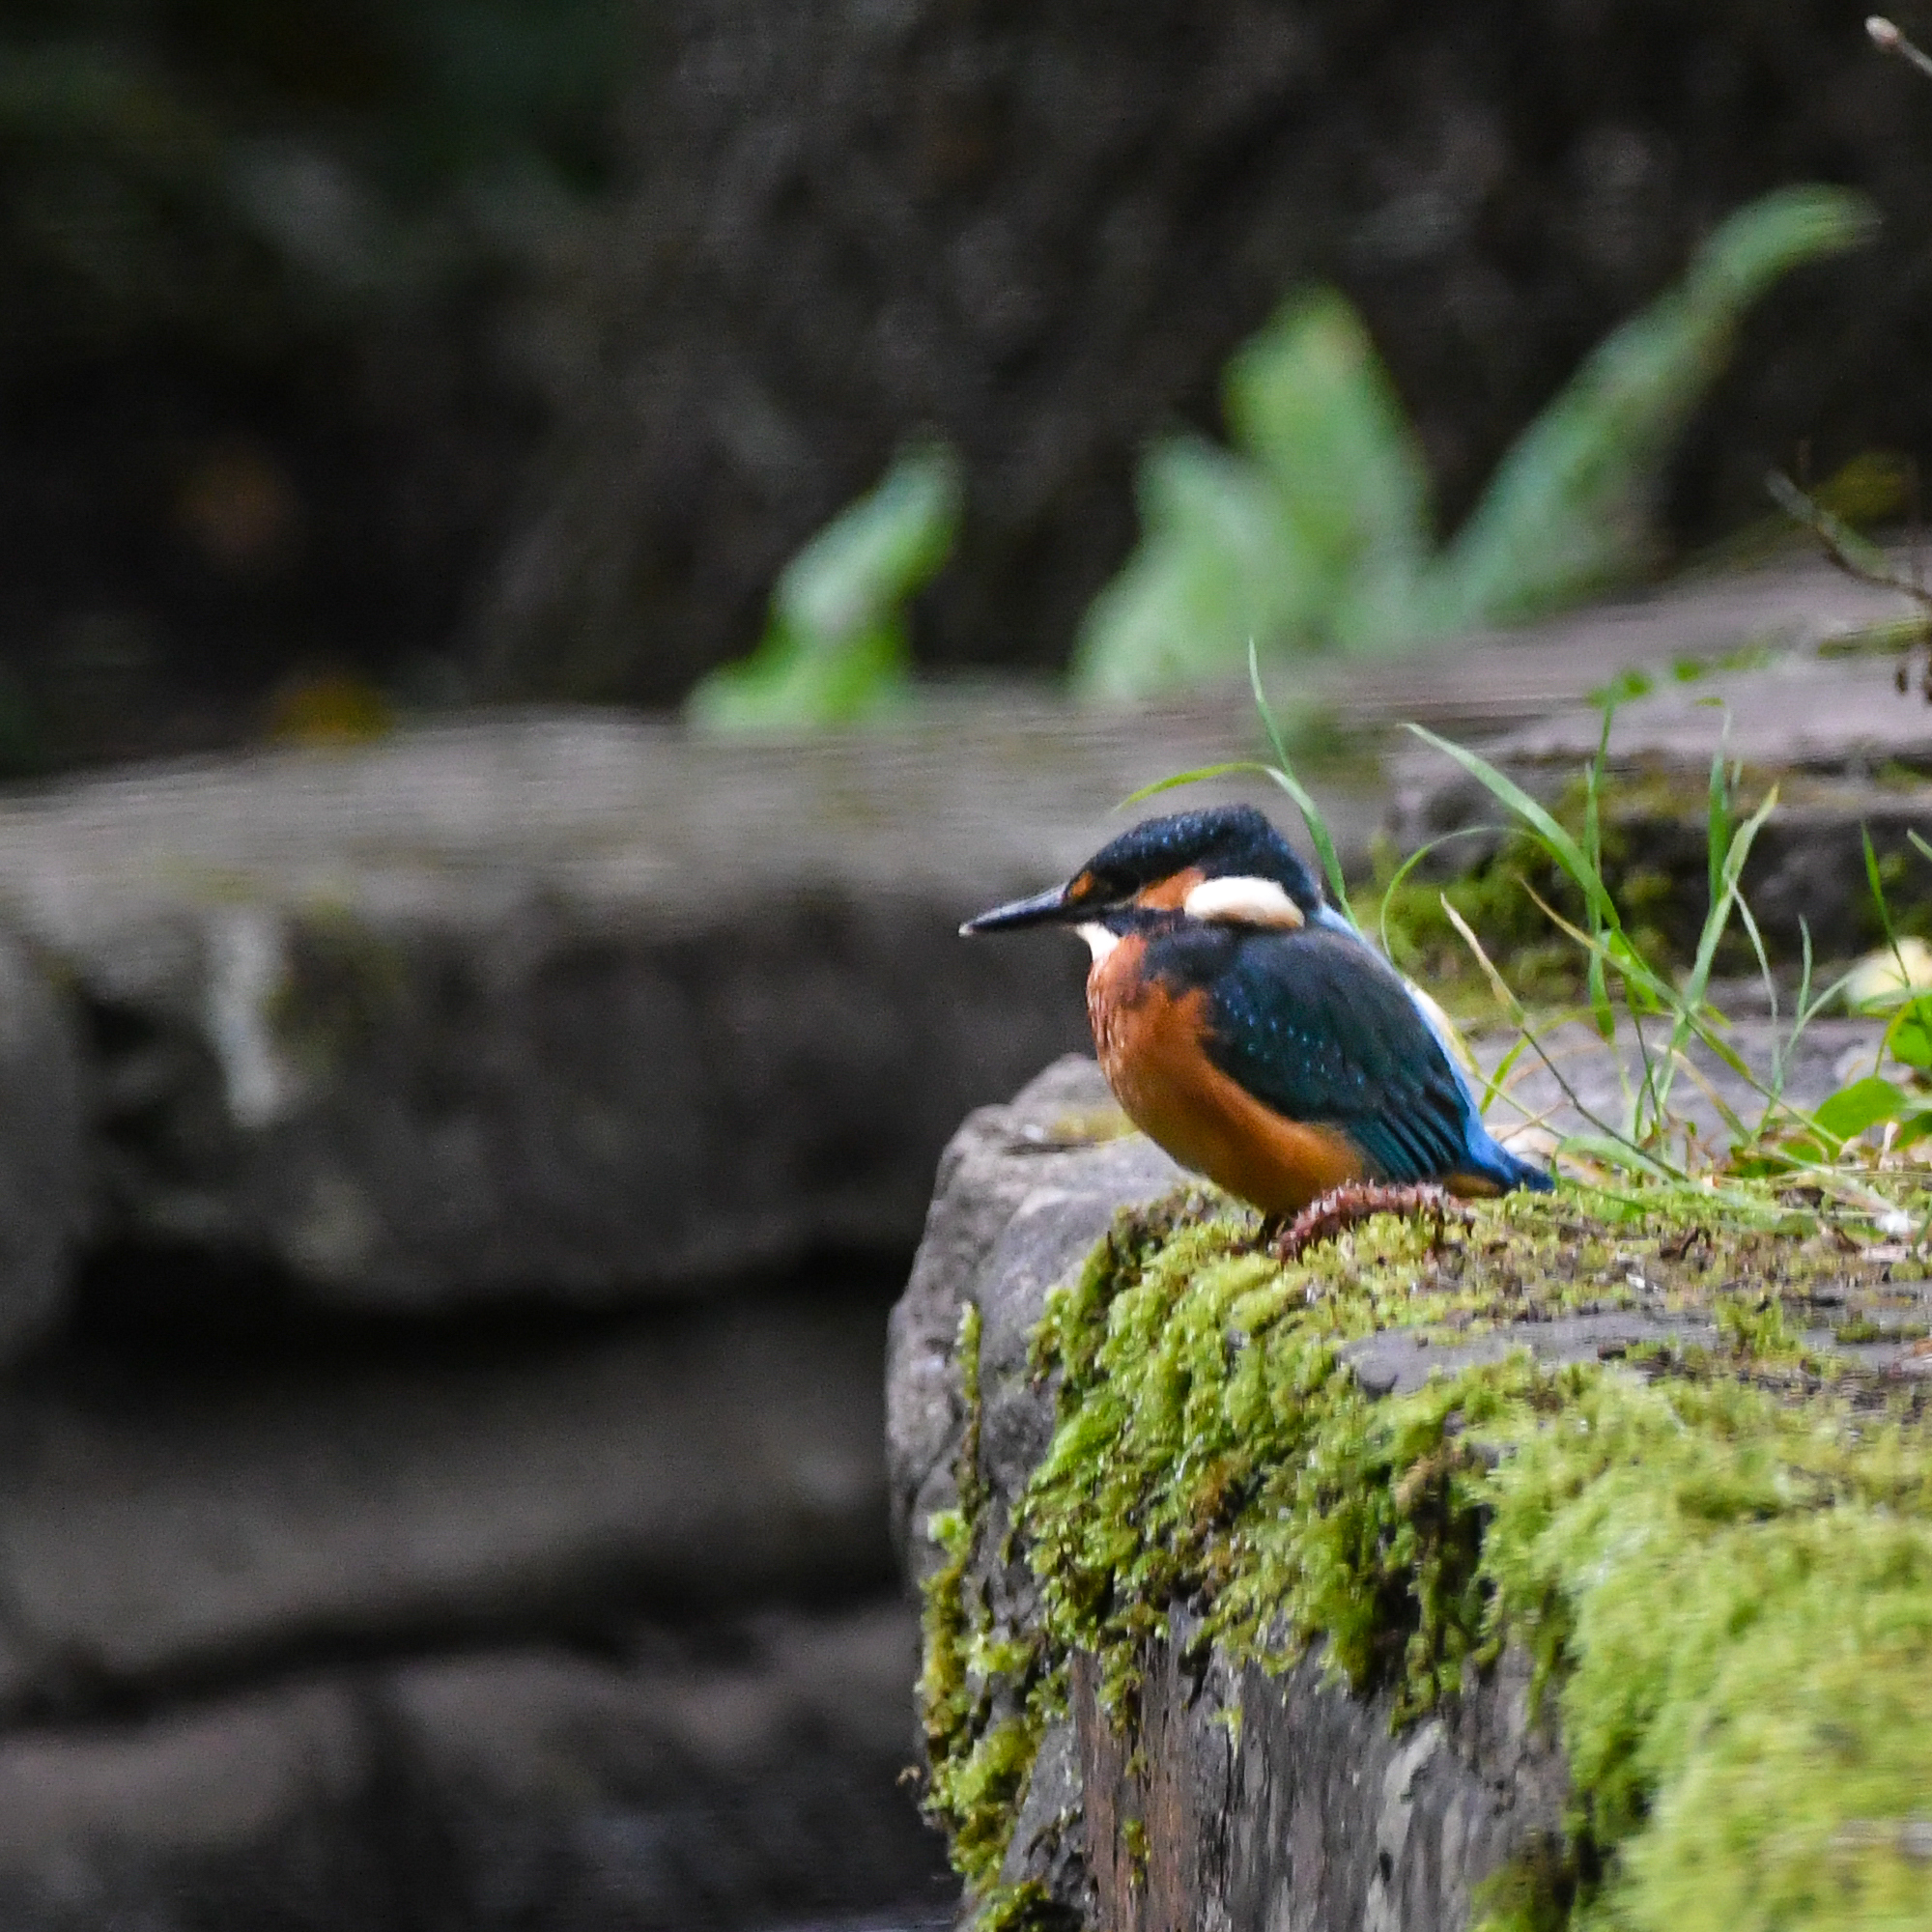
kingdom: Animalia
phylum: Chordata
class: Aves
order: Coraciiformes
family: Alcedinidae
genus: Alcedo
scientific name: Alcedo atthis
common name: Common kingfisher
